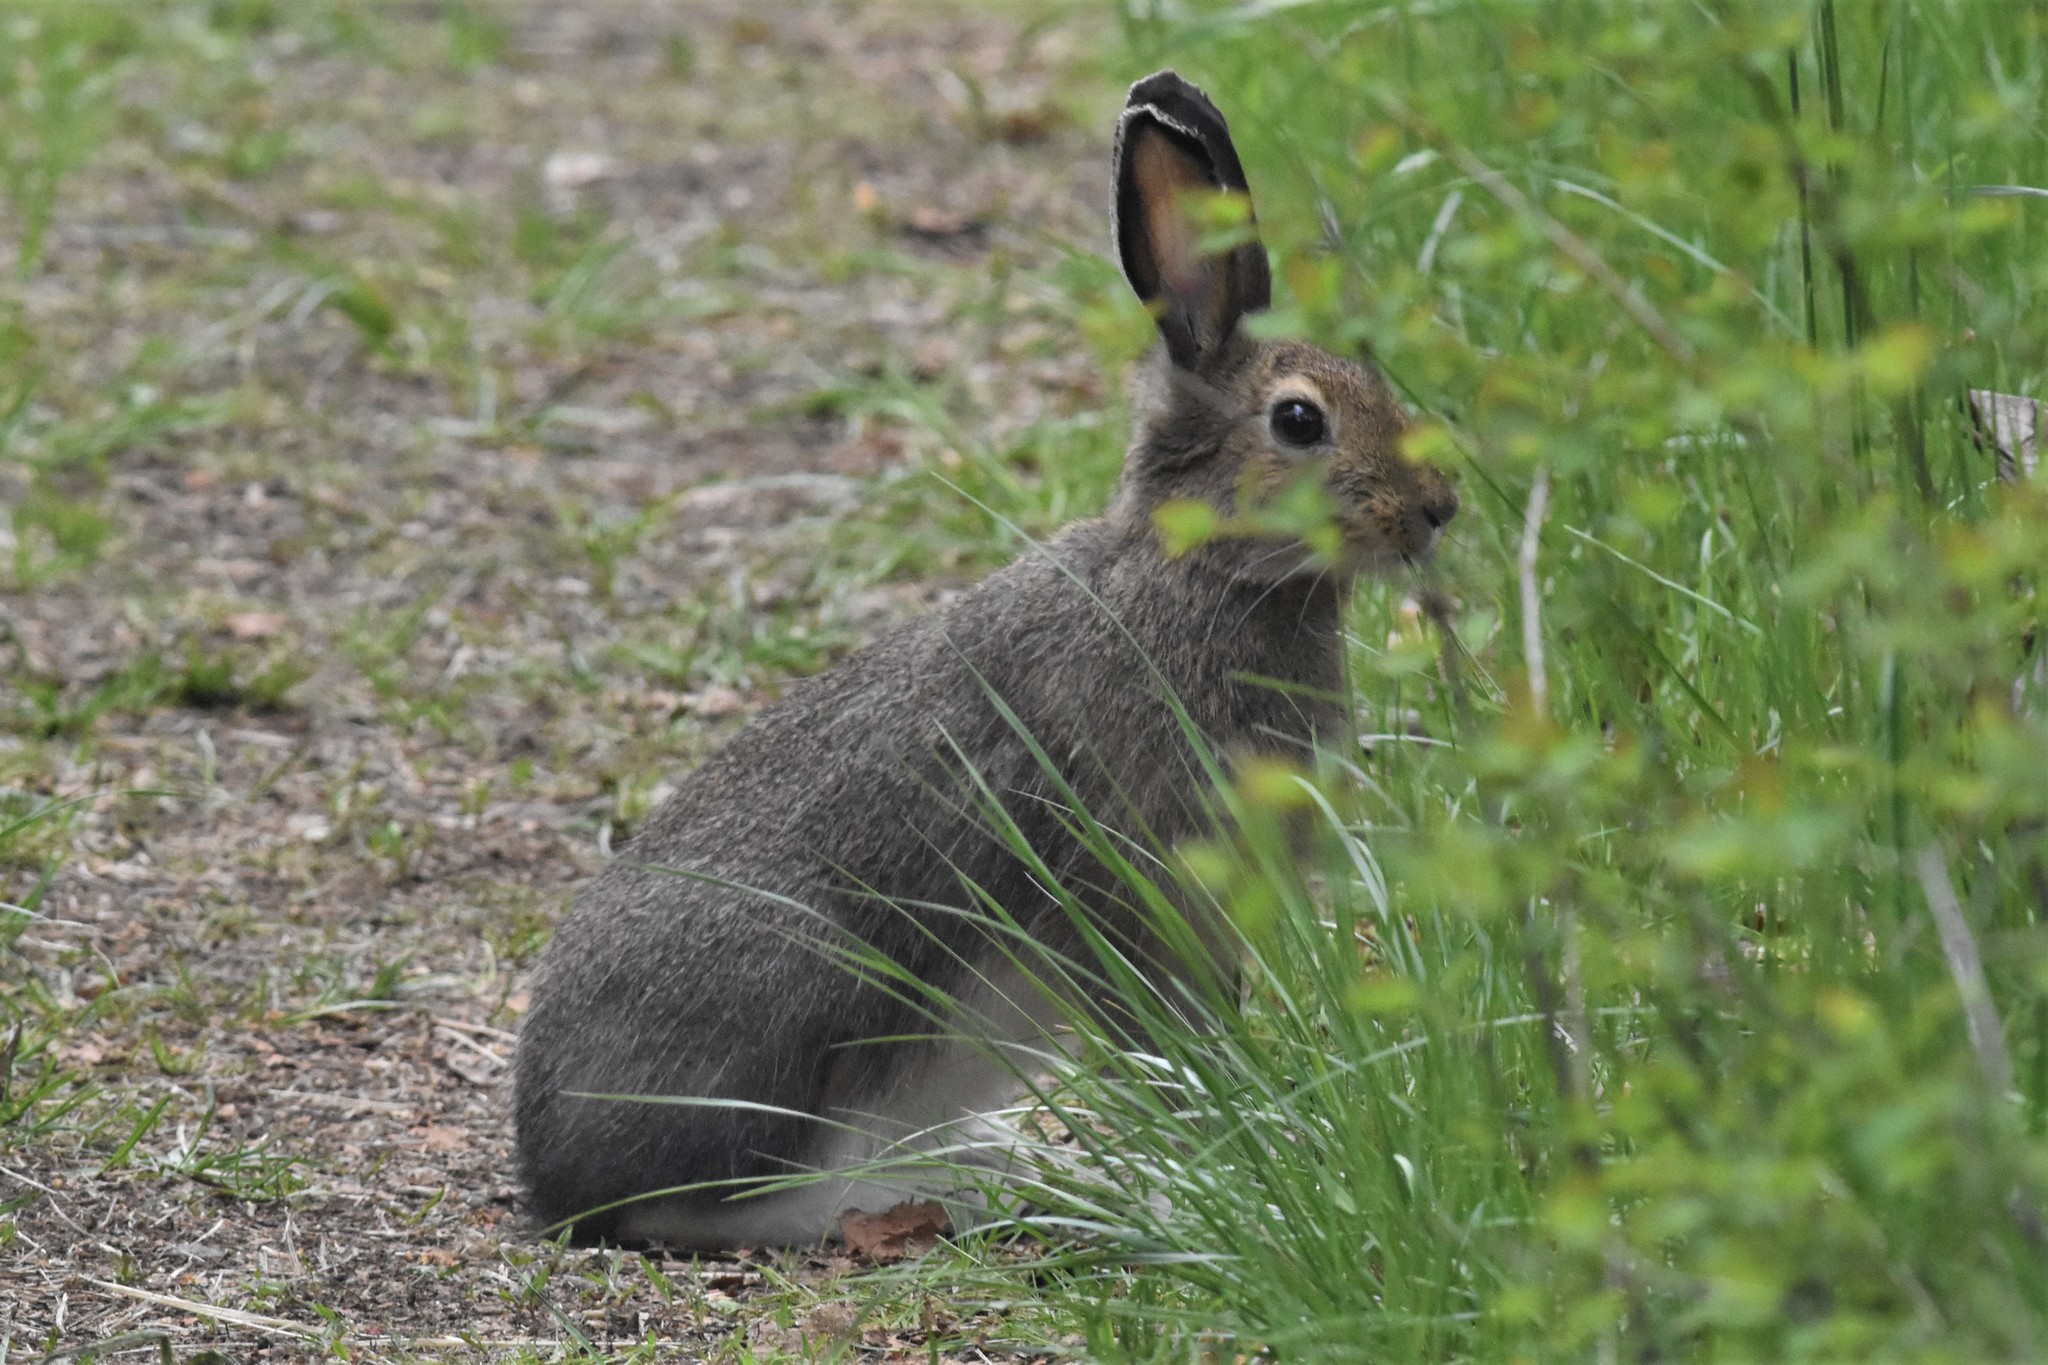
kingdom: Animalia
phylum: Chordata
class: Mammalia
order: Lagomorpha
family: Leporidae
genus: Lepus
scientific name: Lepus americanus
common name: Snowshoe hare
